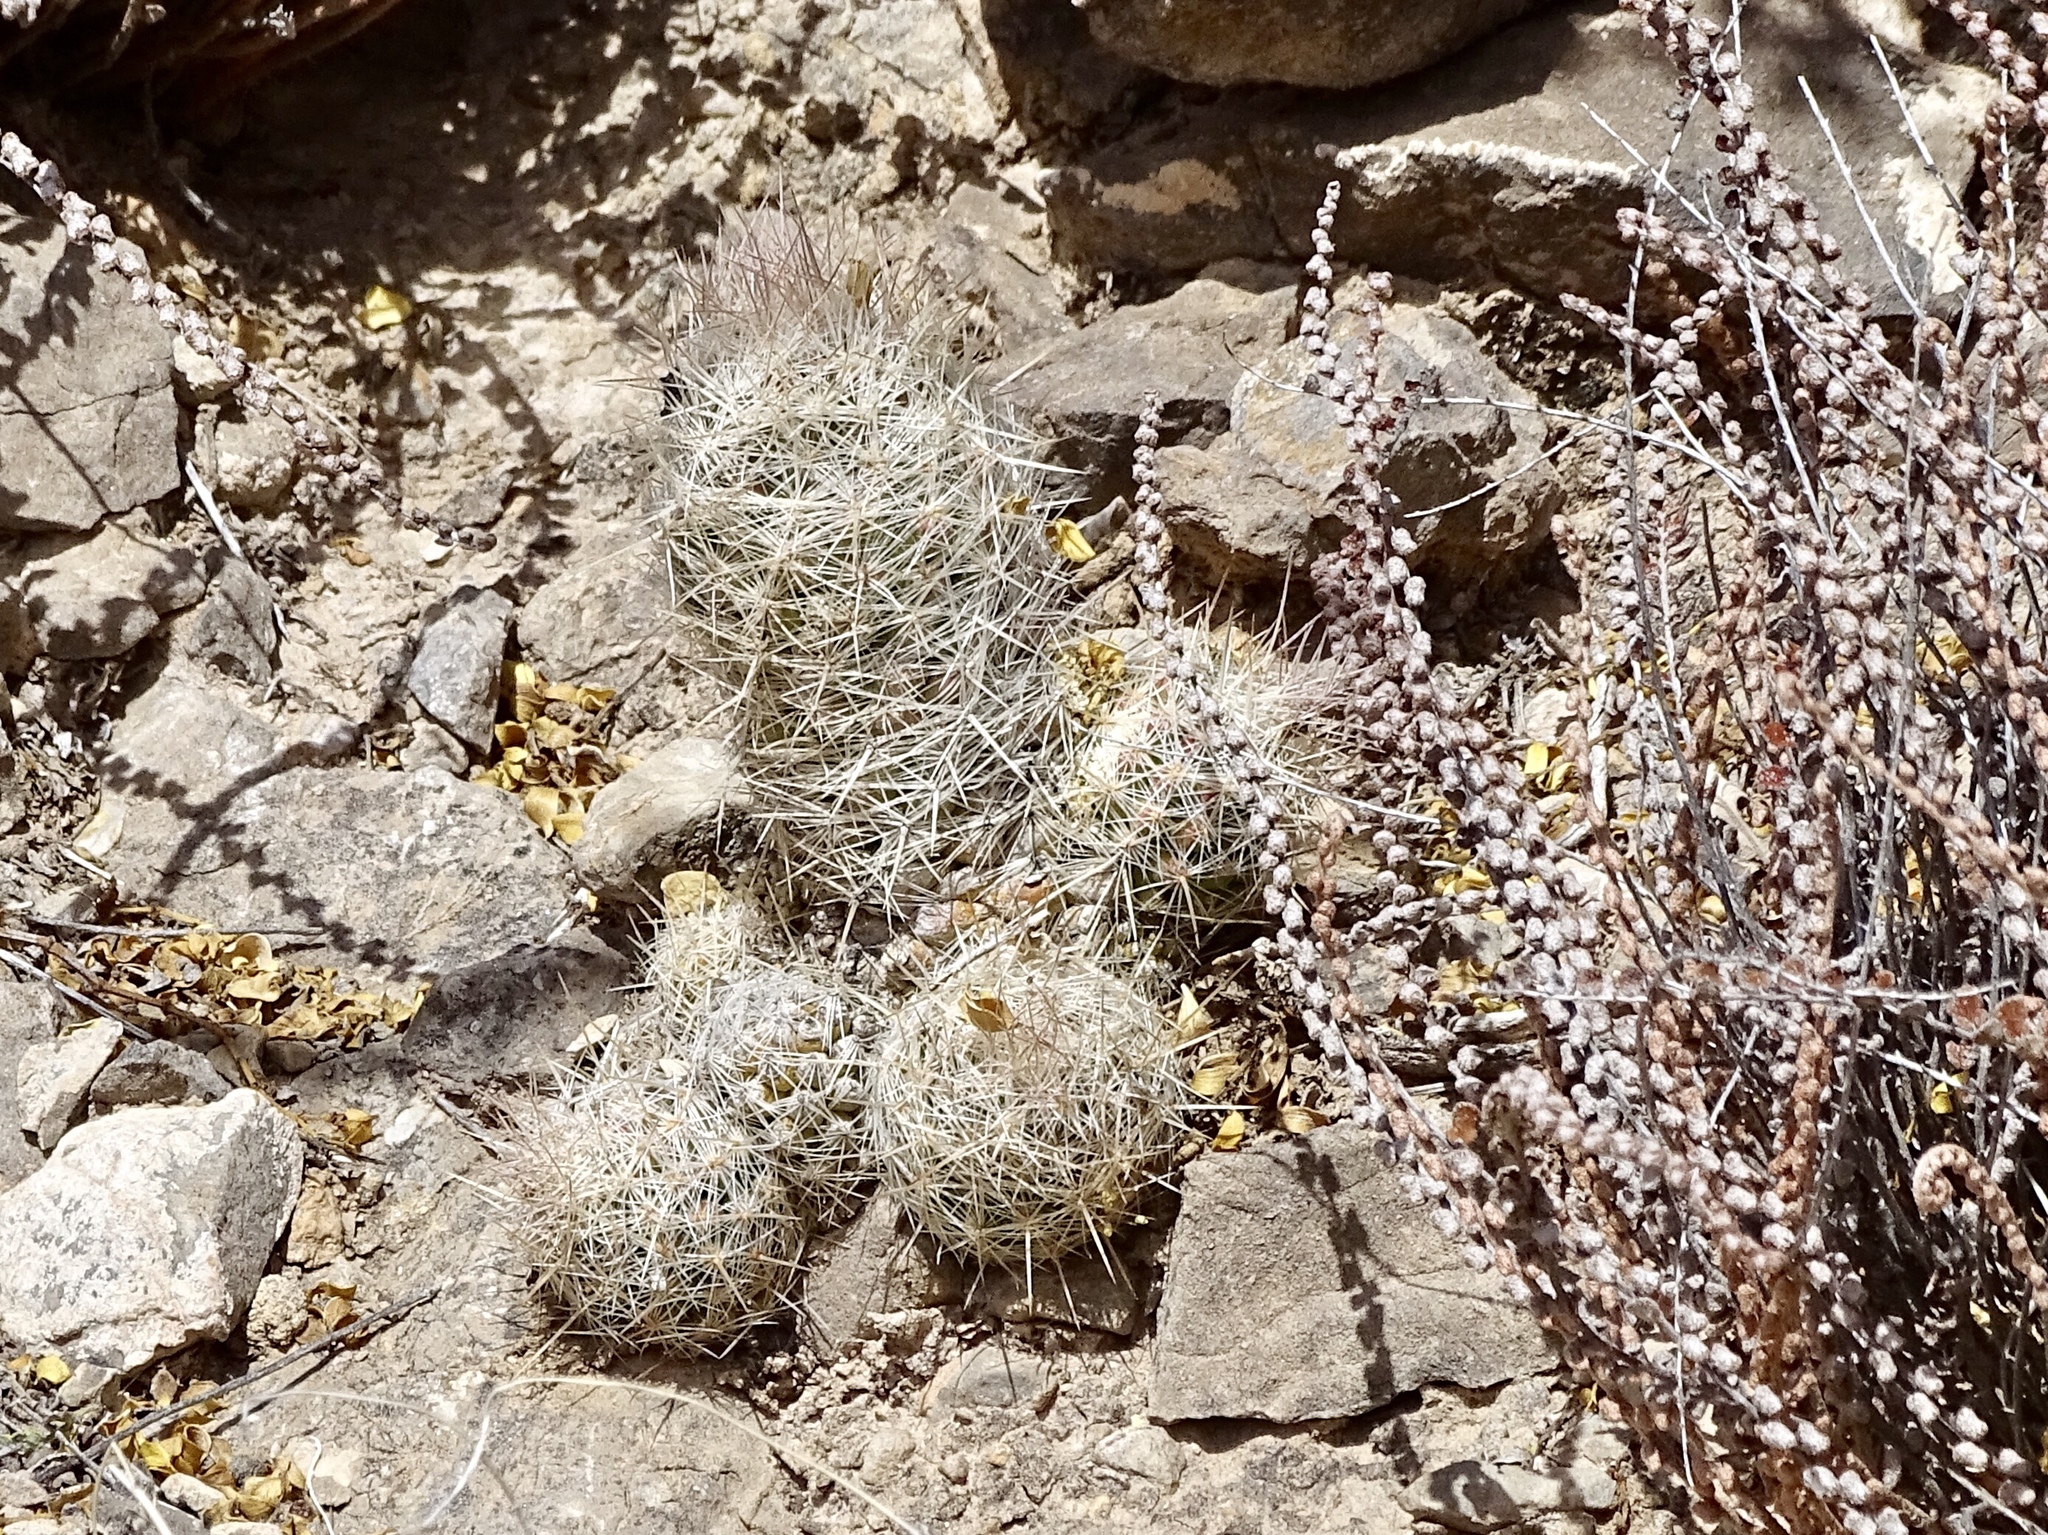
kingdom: Plantae
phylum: Tracheophyta
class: Magnoliopsida
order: Caryophyllales
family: Cactaceae
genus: Pelecyphora
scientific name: Pelecyphora tuberculosa
